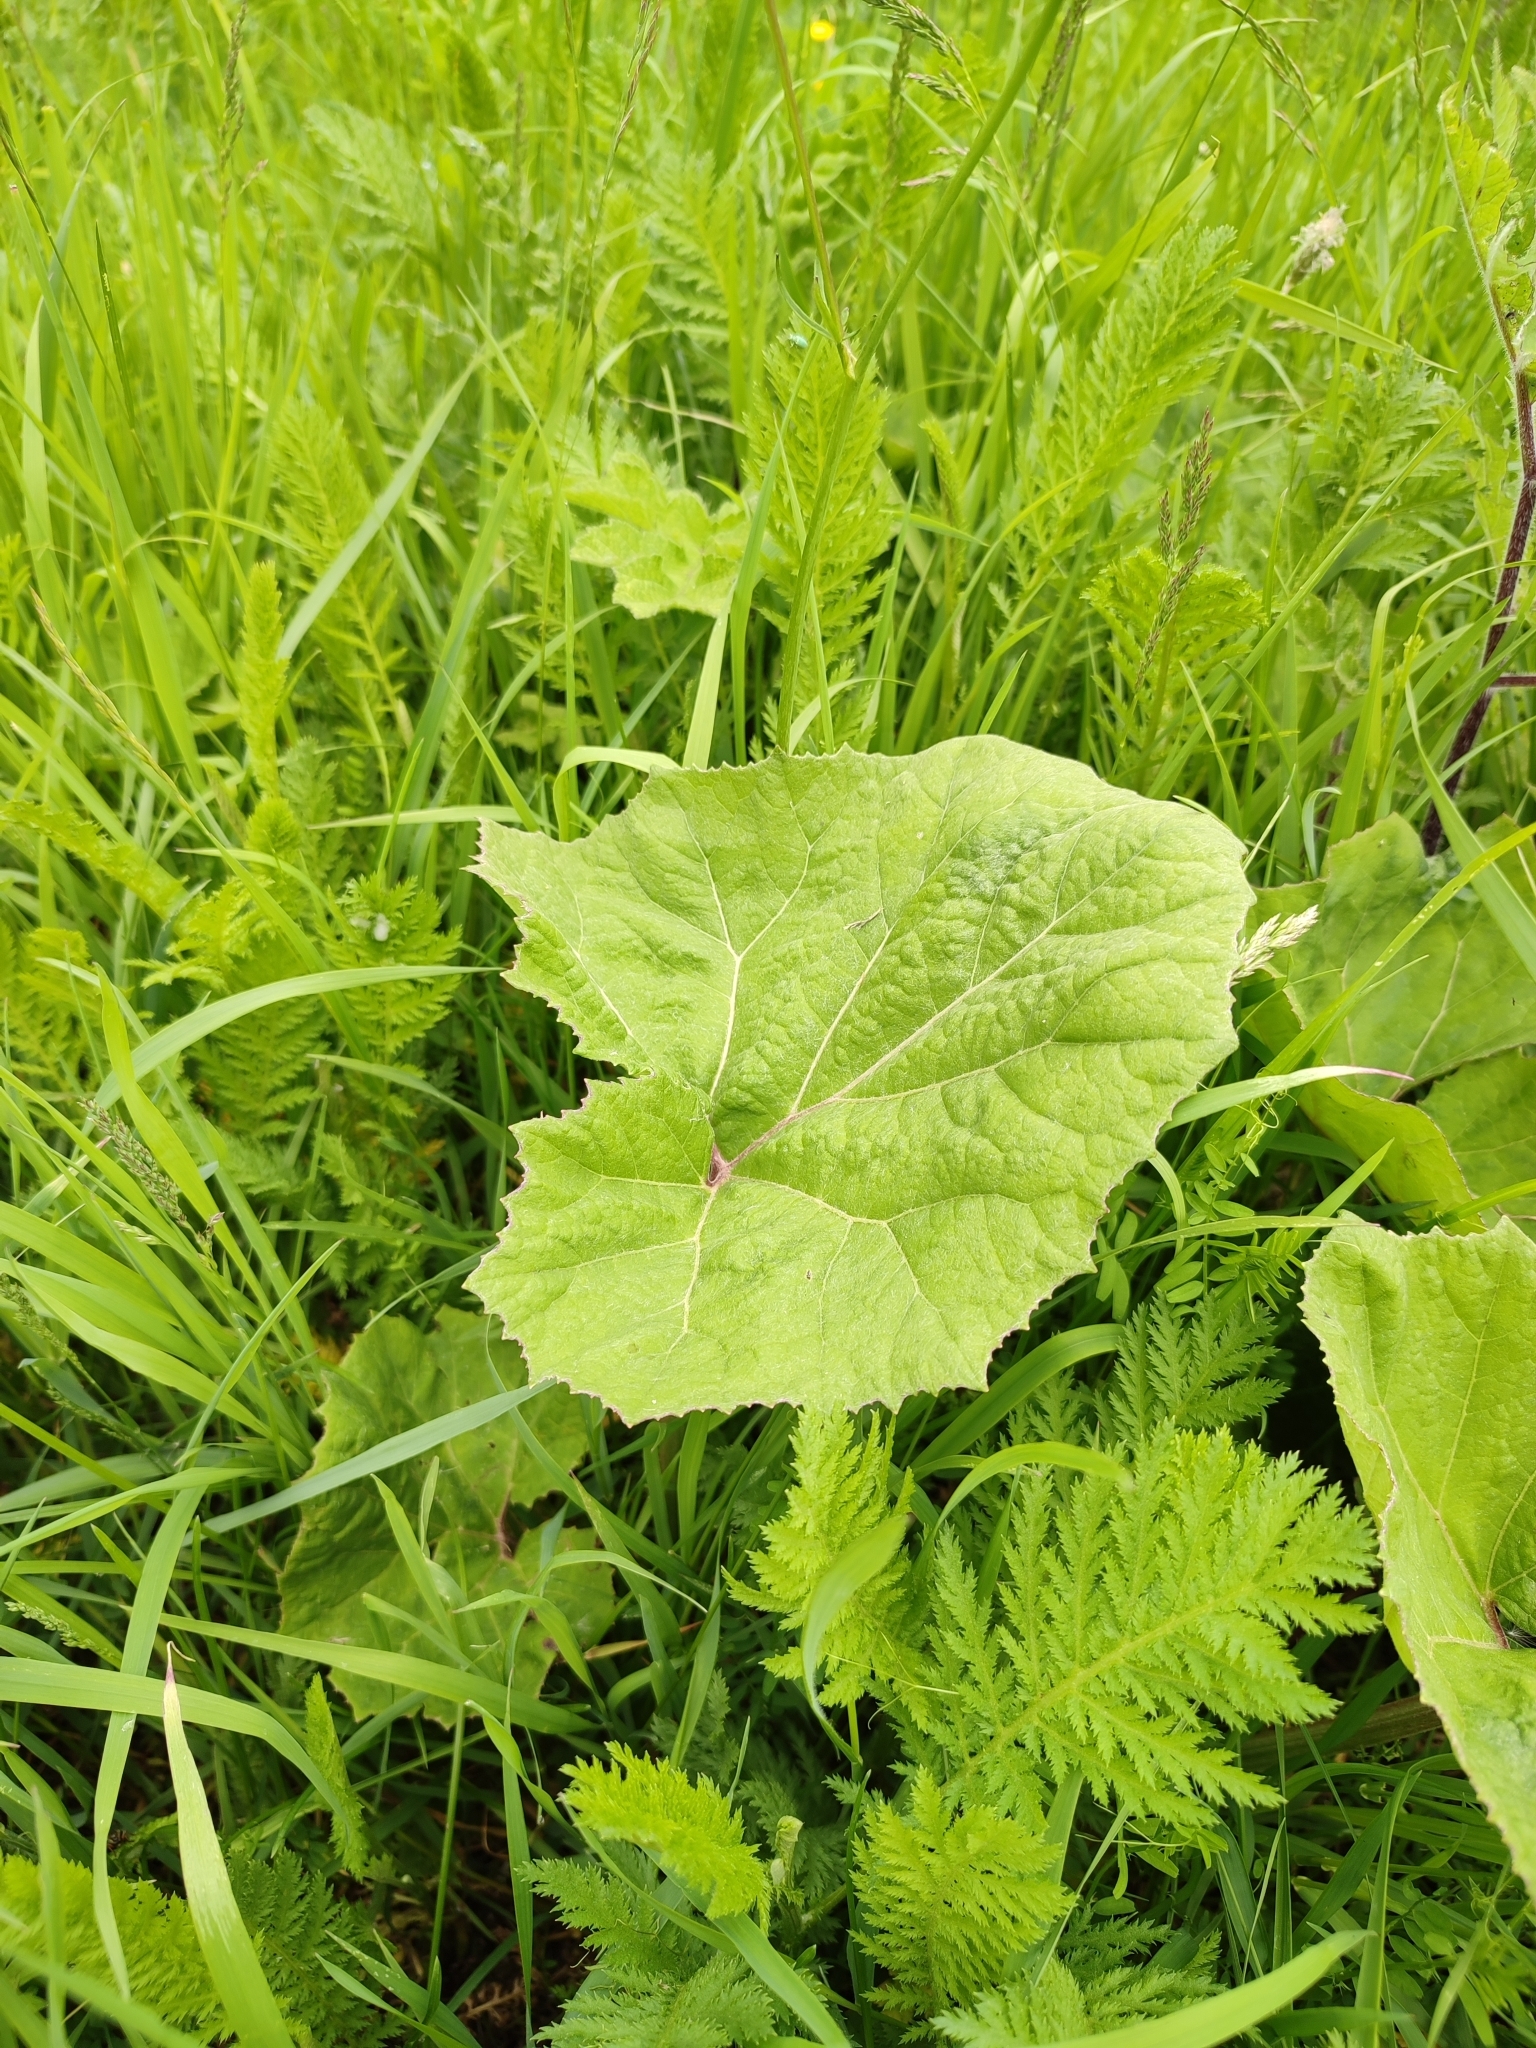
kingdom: Plantae
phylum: Tracheophyta
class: Magnoliopsida
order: Asterales
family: Asteraceae
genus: Petasites
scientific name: Petasites hybridus
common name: Butterbur
